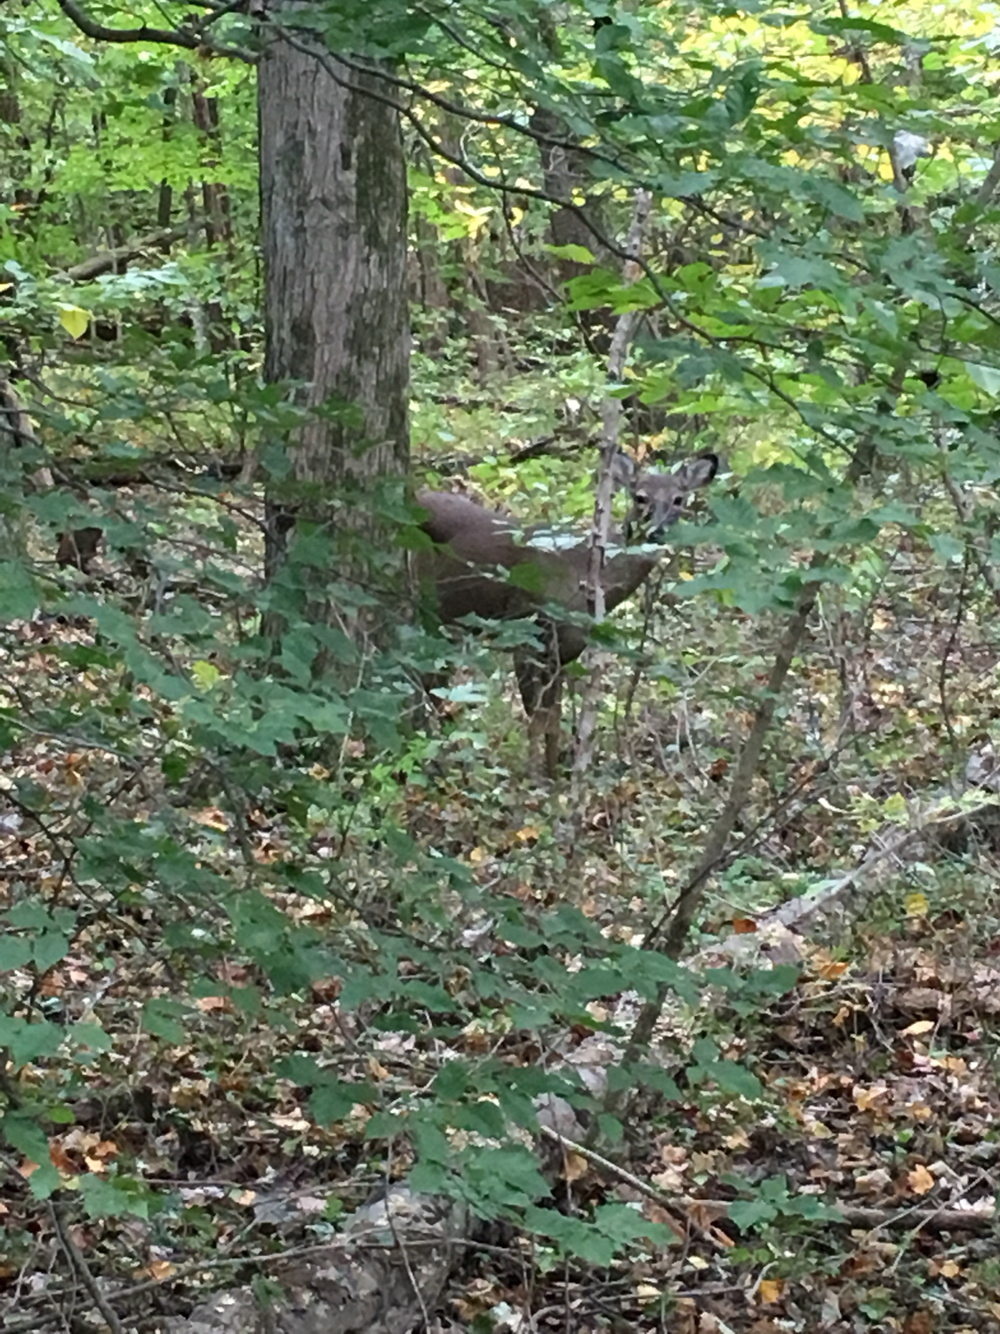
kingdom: Animalia
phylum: Chordata
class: Mammalia
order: Artiodactyla
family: Cervidae
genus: Odocoileus
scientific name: Odocoileus virginianus
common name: White-tailed deer
